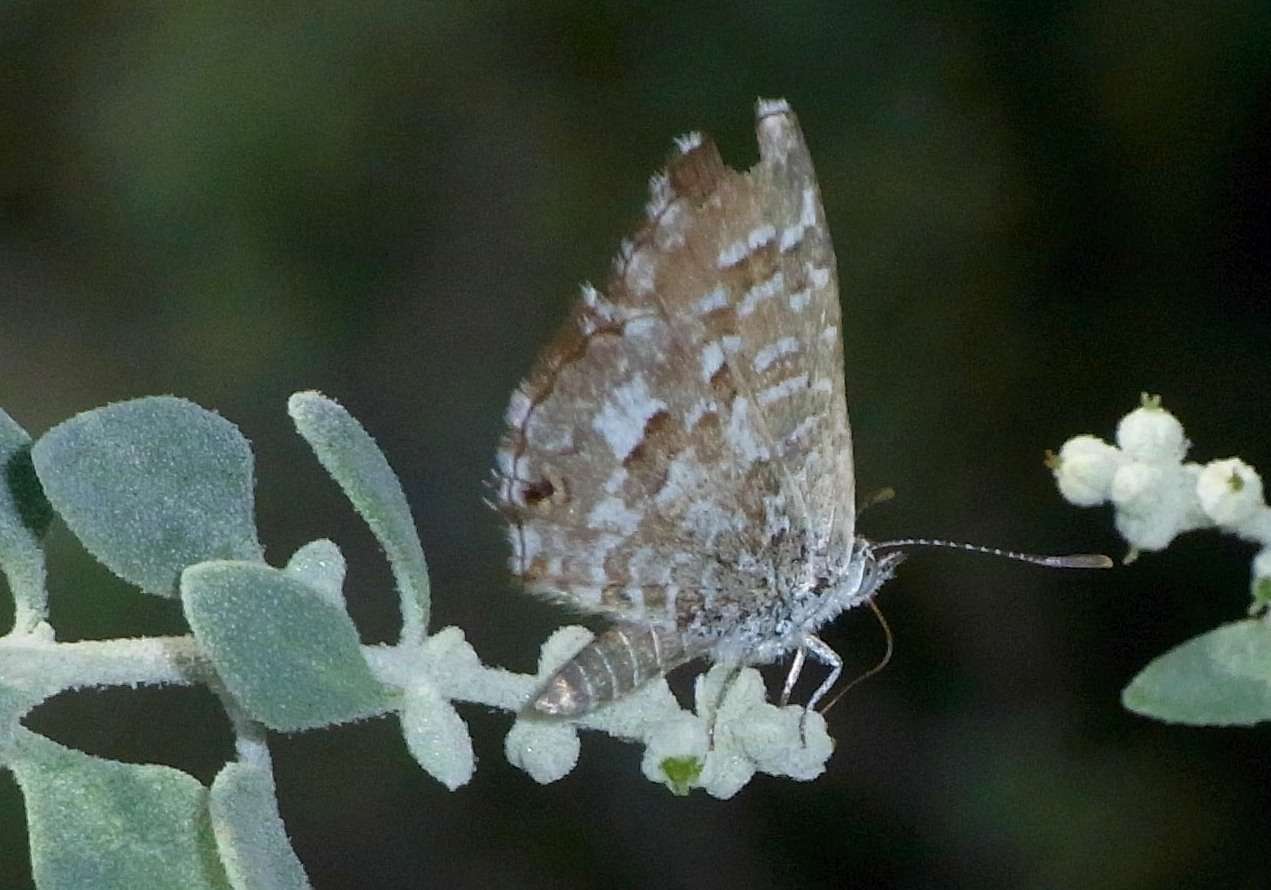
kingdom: Animalia
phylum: Arthropoda
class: Insecta
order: Lepidoptera
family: Lycaenidae
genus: Theclinesthes
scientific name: Theclinesthes serpentata
